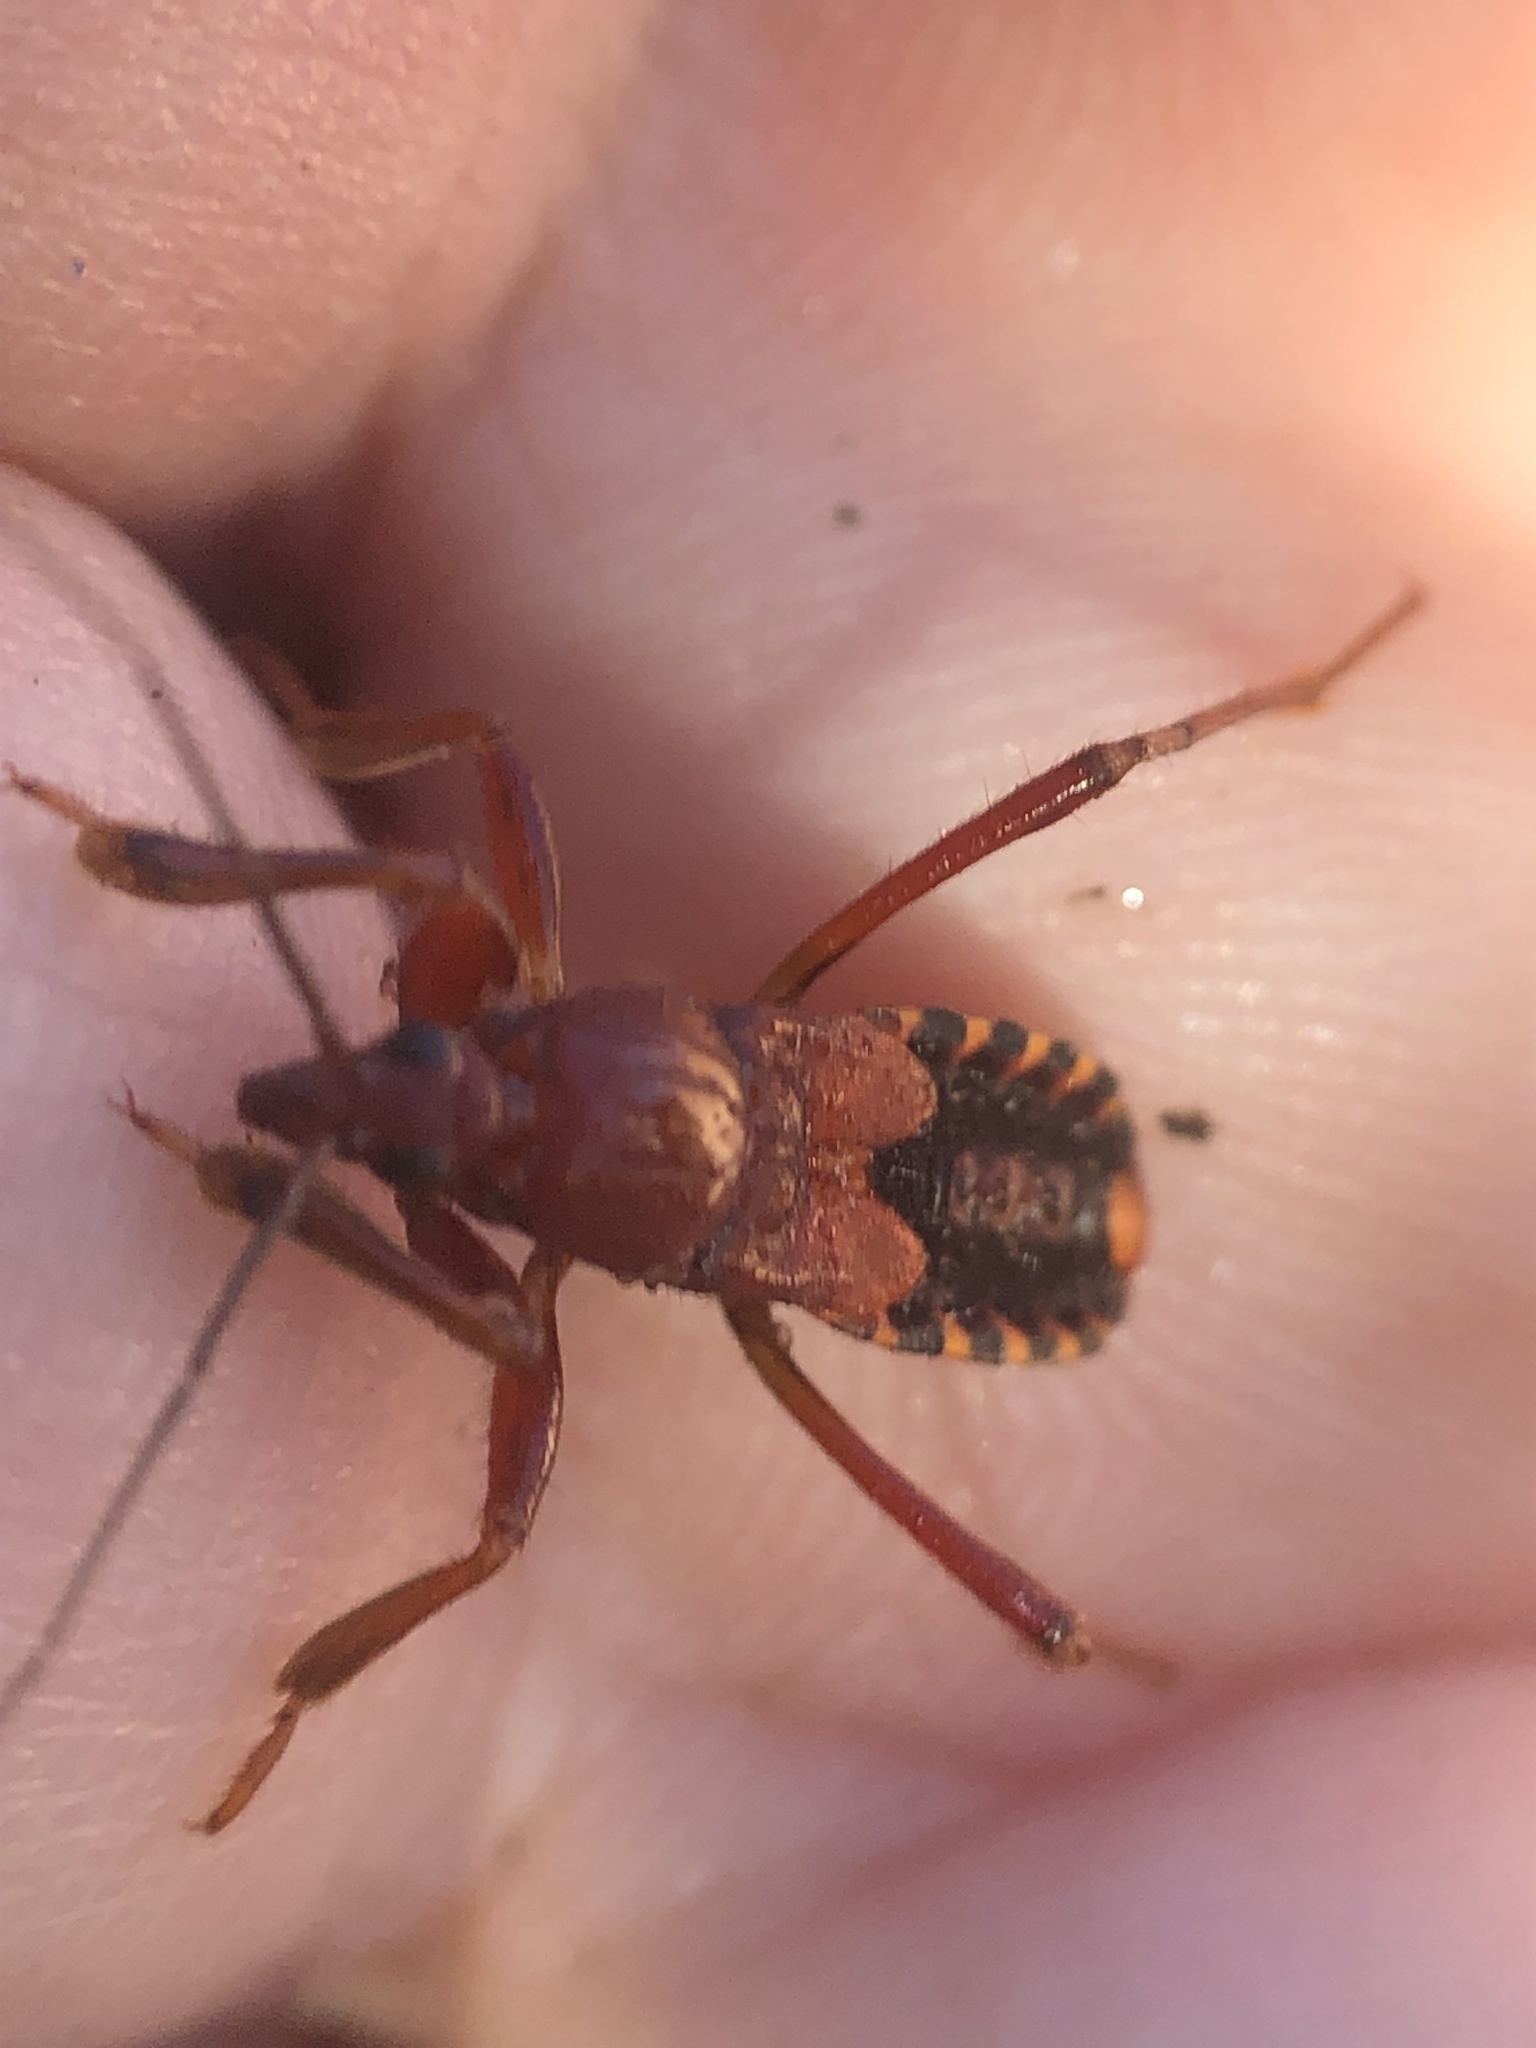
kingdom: Animalia
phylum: Arthropoda
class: Insecta
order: Hemiptera
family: Reduviidae
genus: Rasahus
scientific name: Rasahus thoracicus
